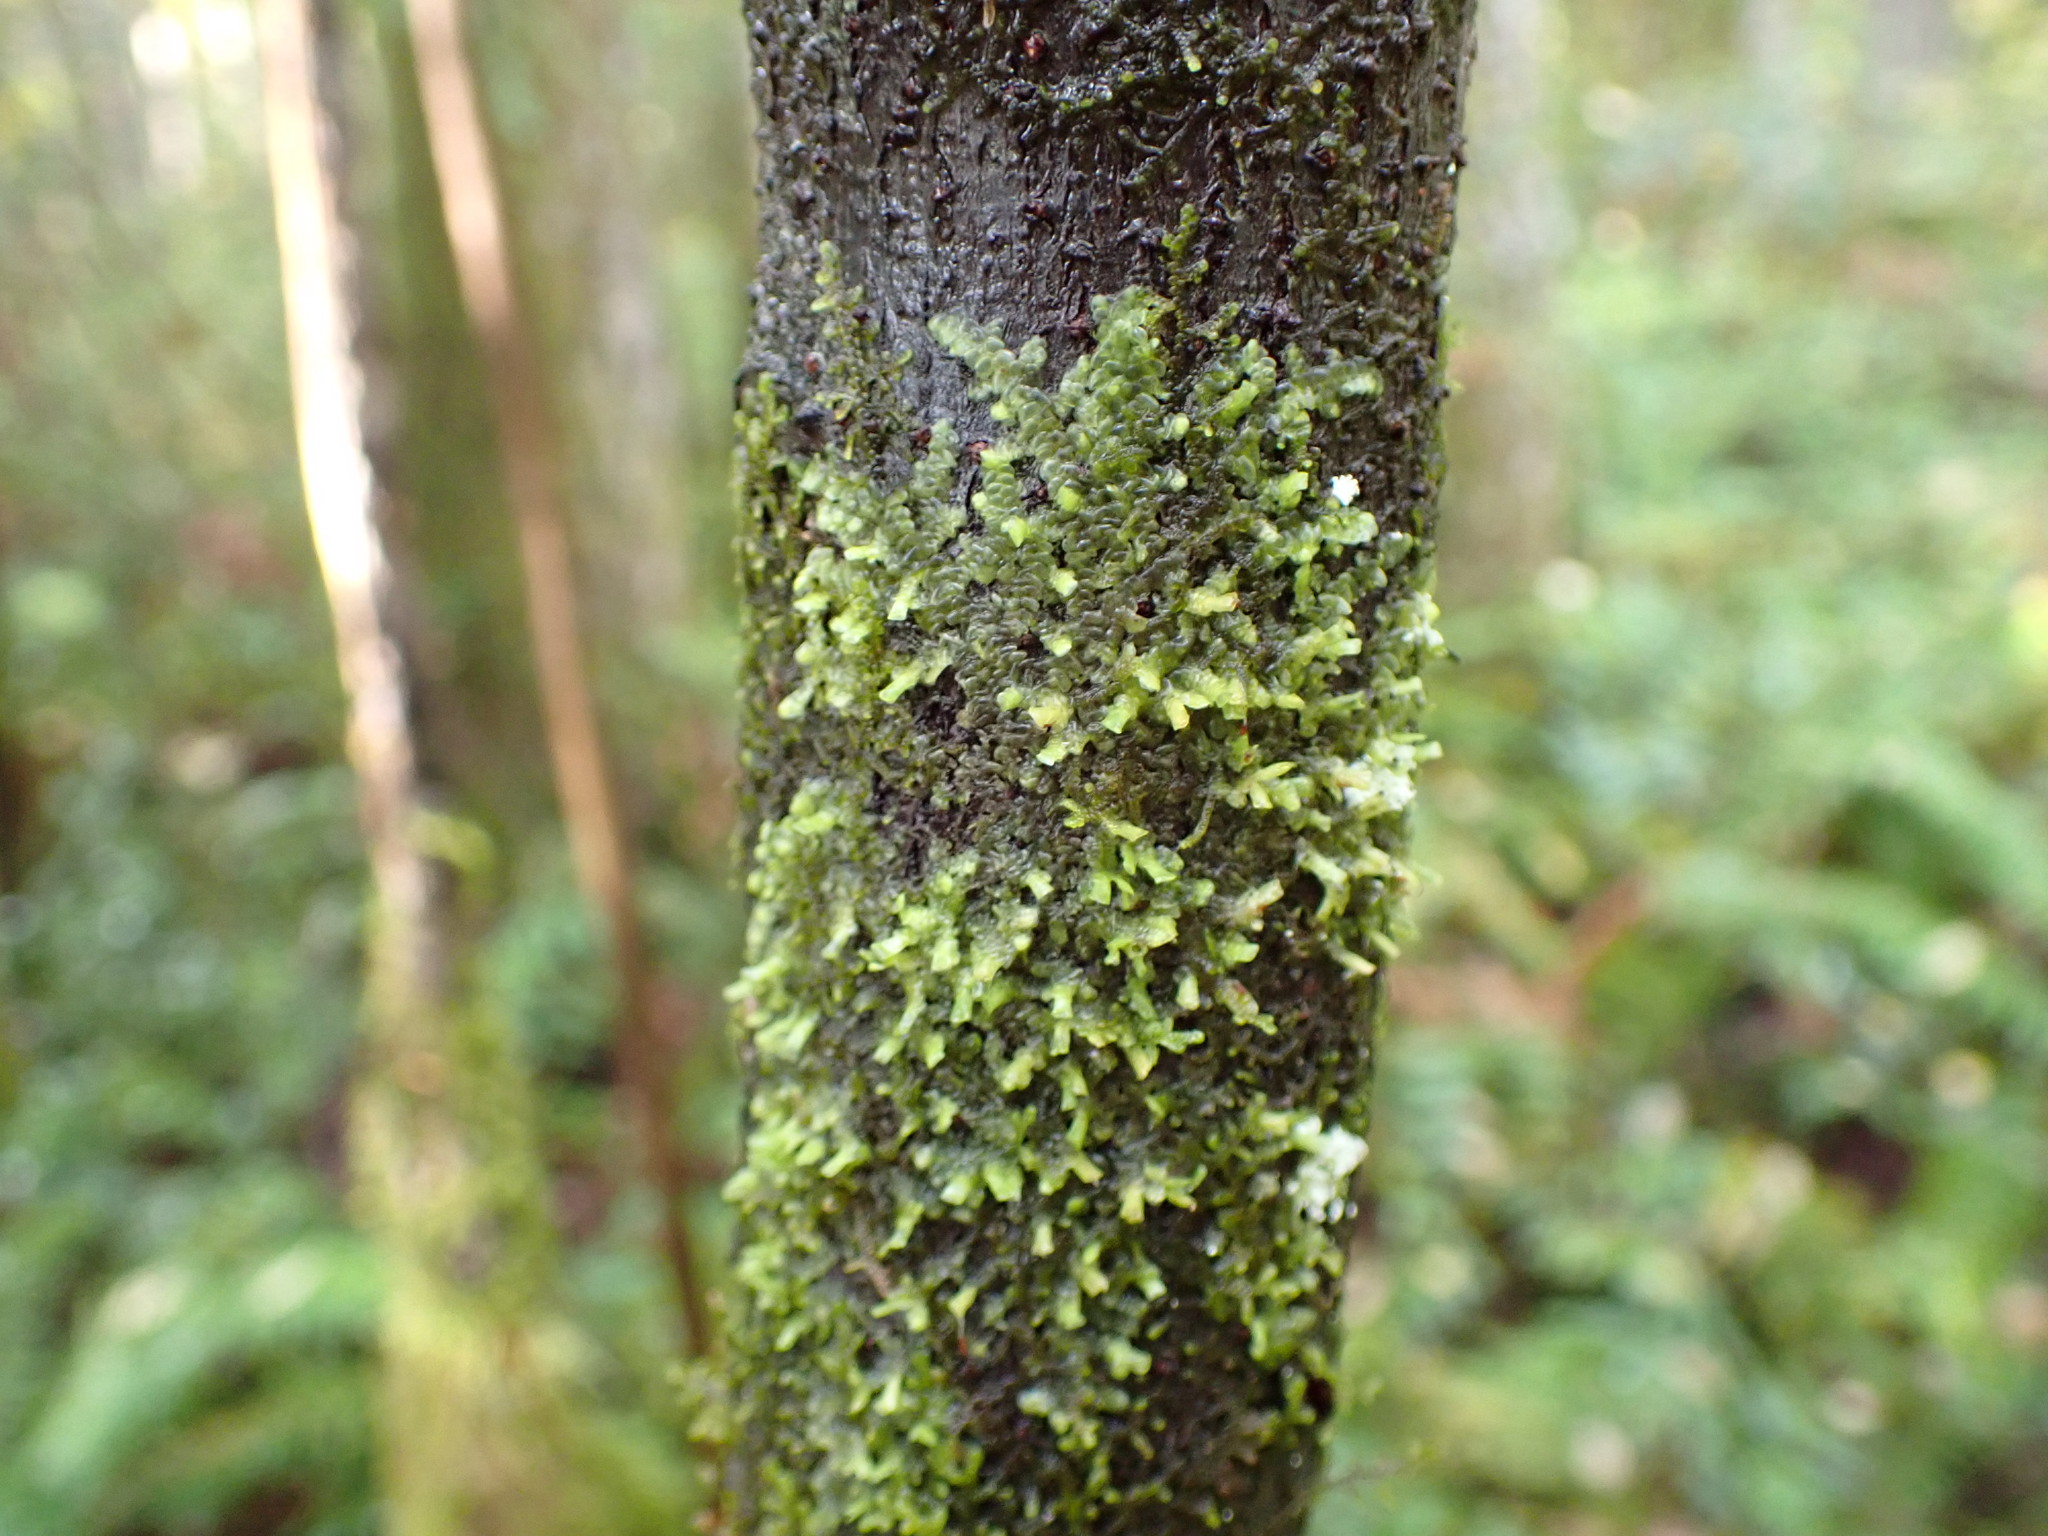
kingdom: Plantae
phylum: Marchantiophyta
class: Jungermanniopsida
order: Porellales
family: Radulaceae
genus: Radula
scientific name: Radula complanata
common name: Flat-leaved scalewort
